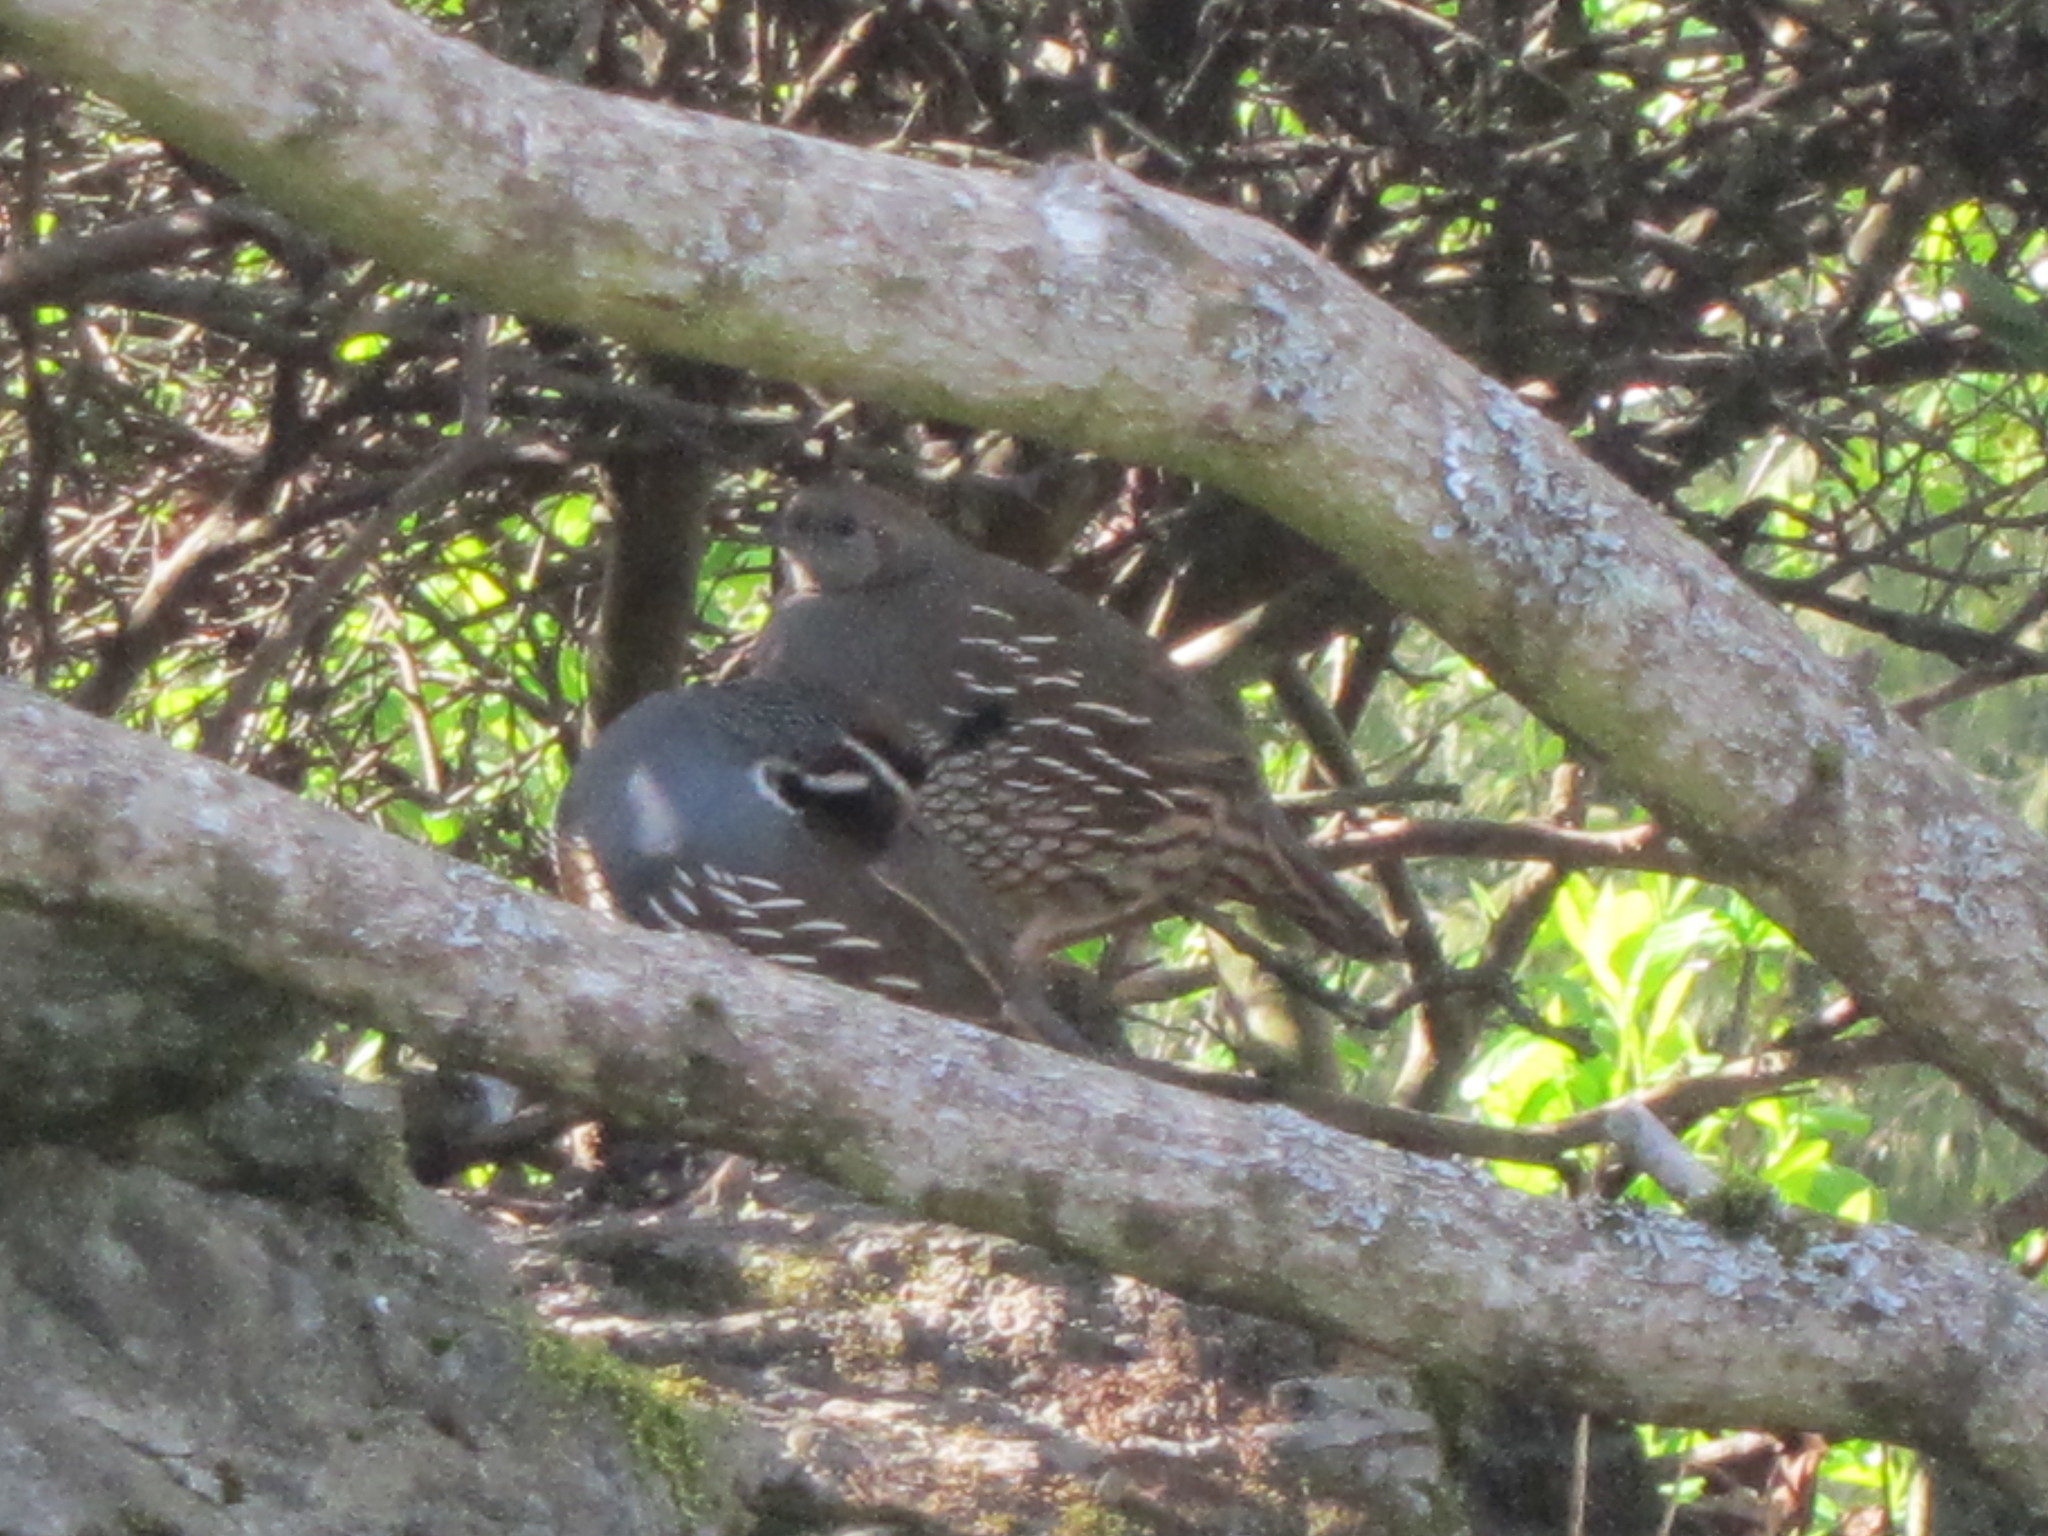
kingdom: Animalia
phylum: Chordata
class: Aves
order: Galliformes
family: Odontophoridae
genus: Callipepla
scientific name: Callipepla californica
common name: California quail
